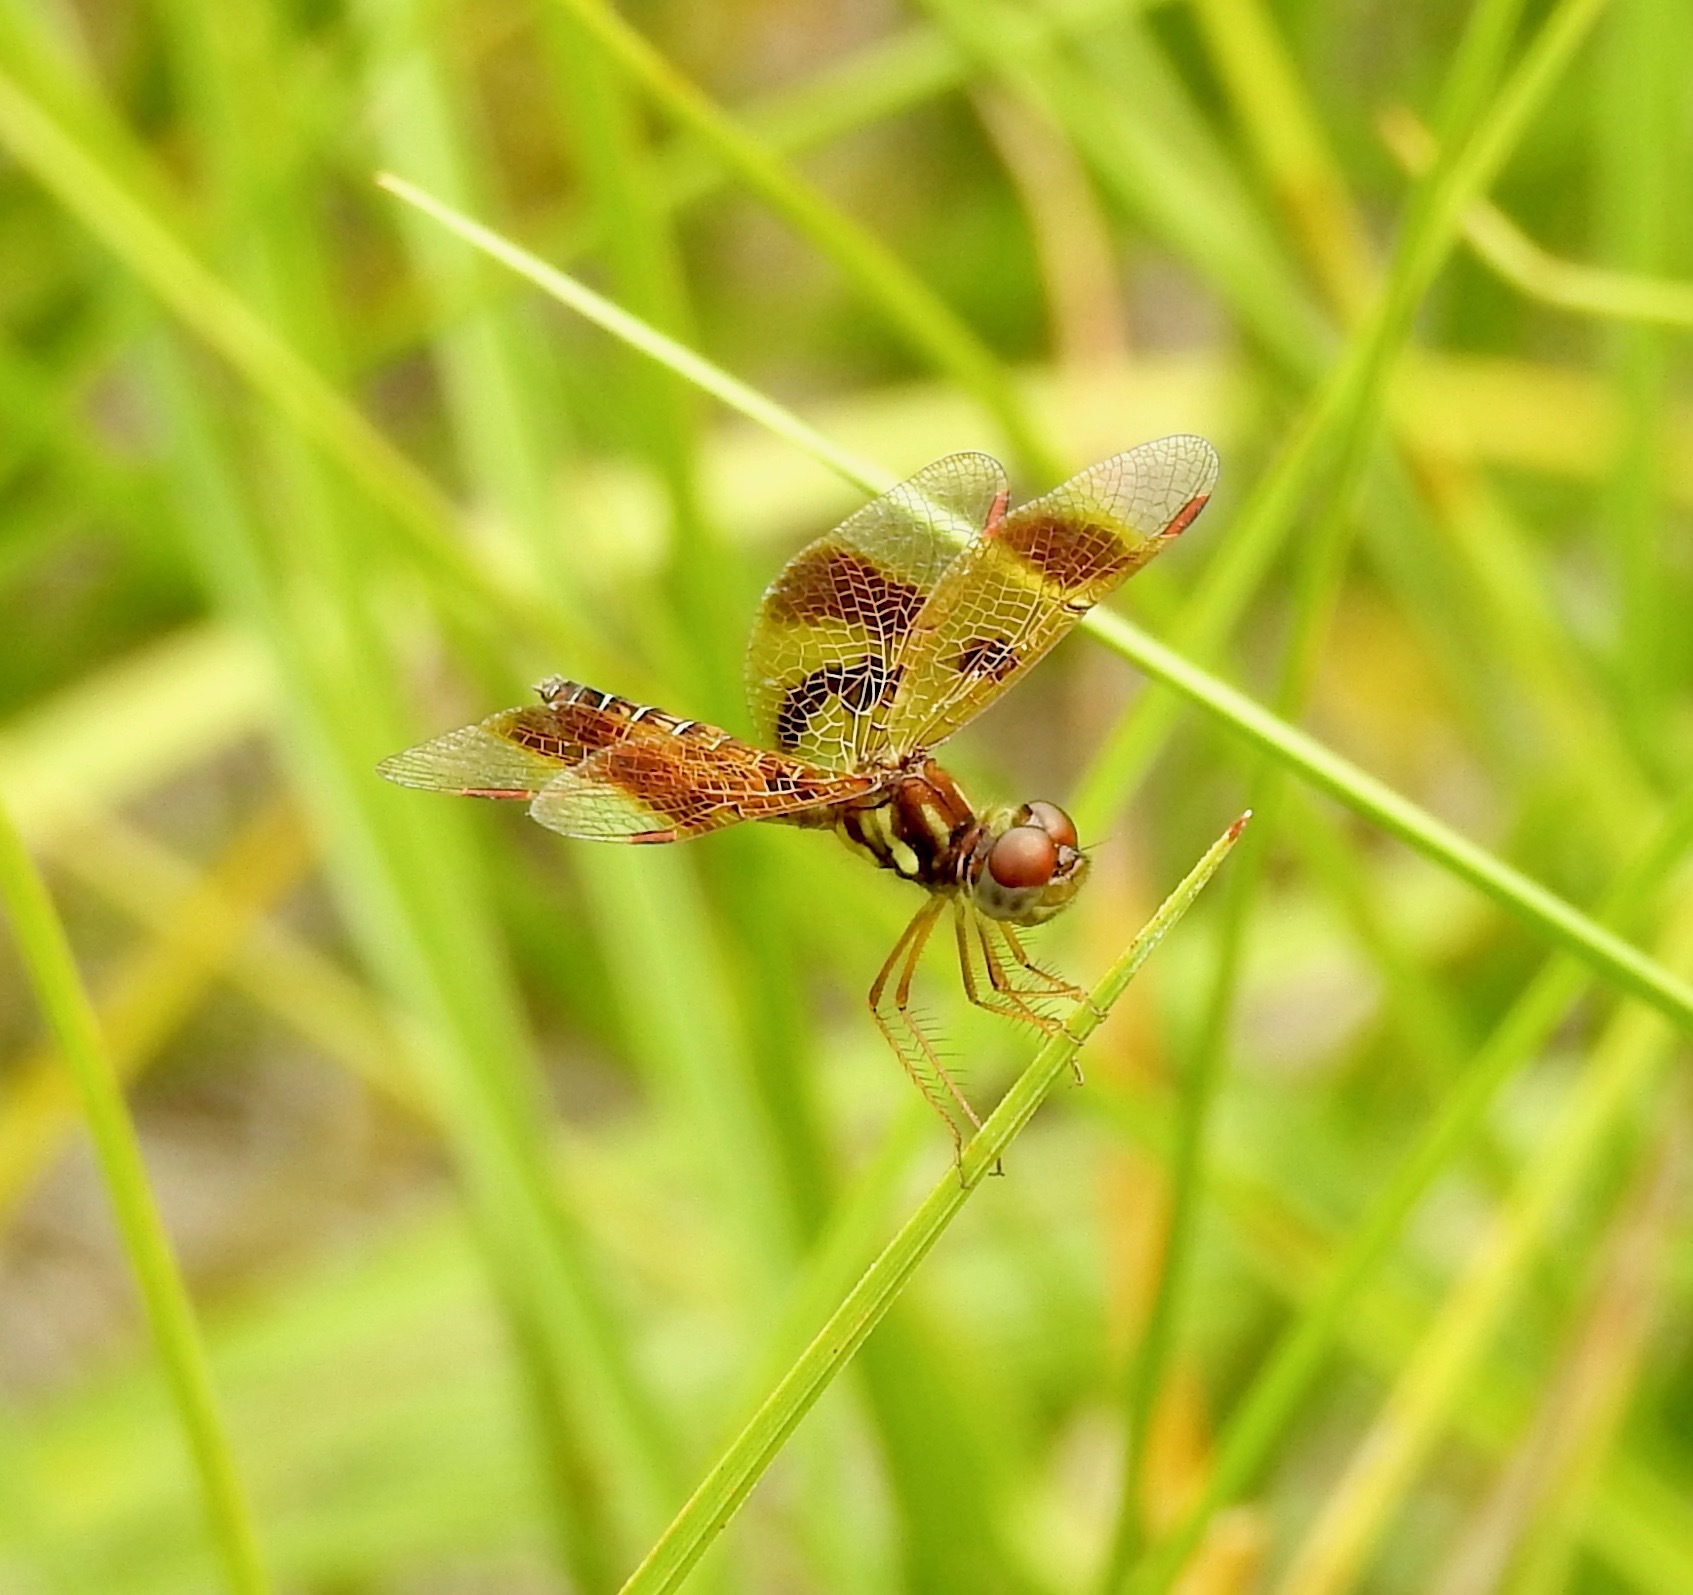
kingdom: Animalia
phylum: Arthropoda
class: Insecta
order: Odonata
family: Libellulidae
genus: Perithemis
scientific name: Perithemis tenera
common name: Eastern amberwing
